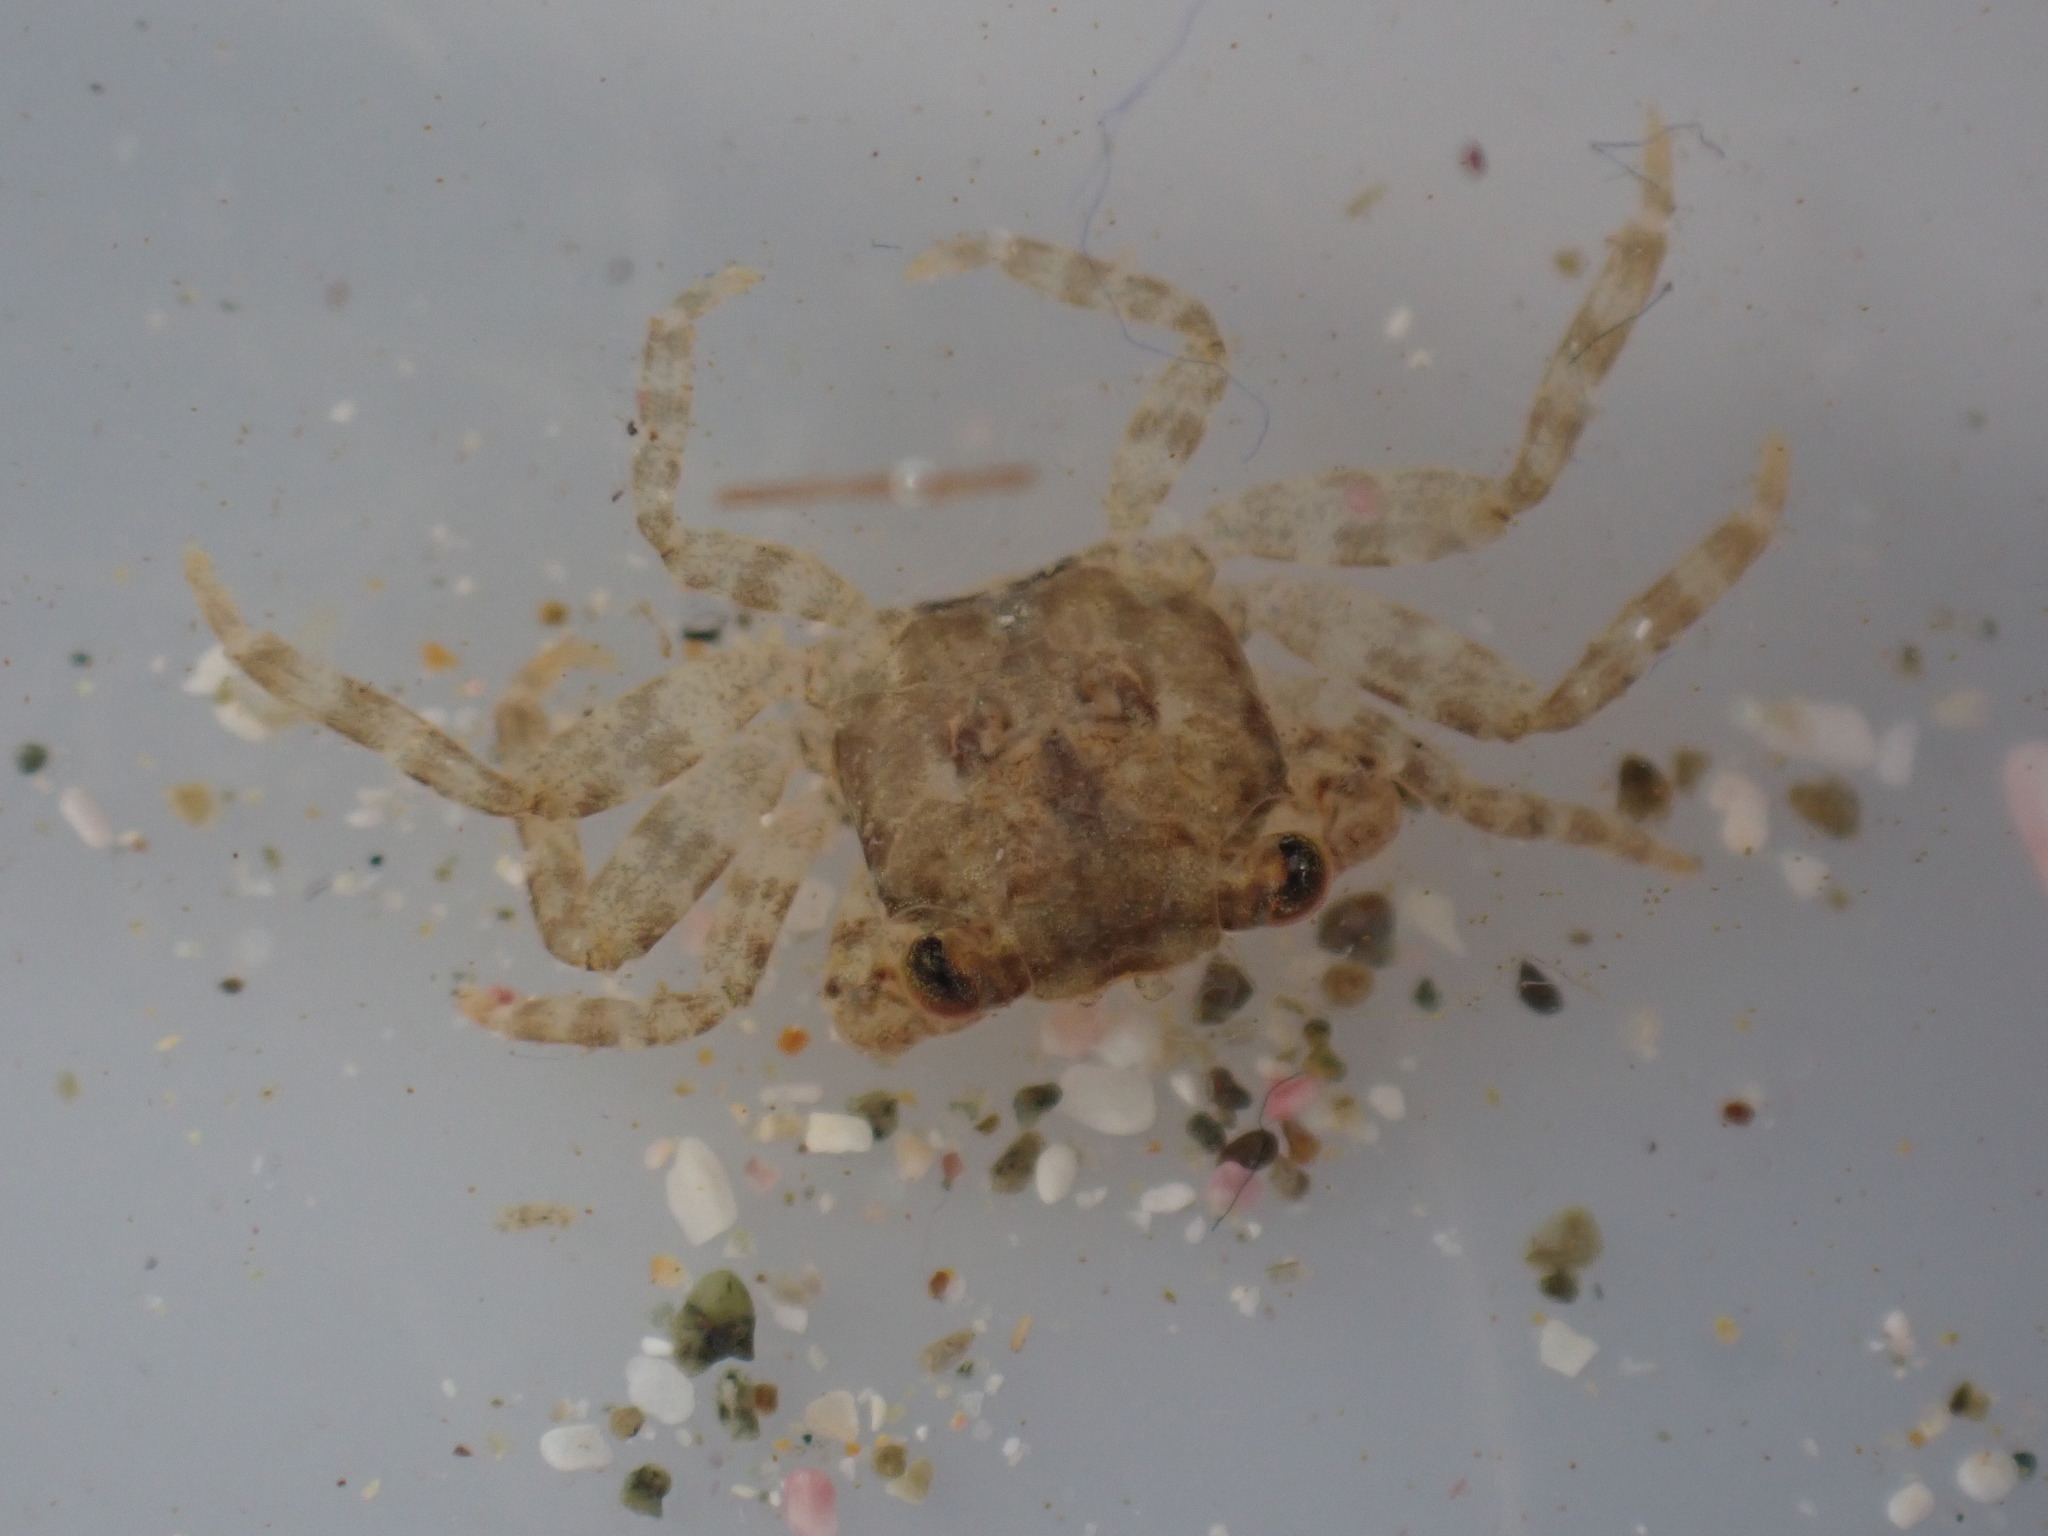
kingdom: Animalia
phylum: Arthropoda
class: Malacostraca
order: Decapoda
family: Grapsidae
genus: Leptograpsus
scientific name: Leptograpsus variegatus
